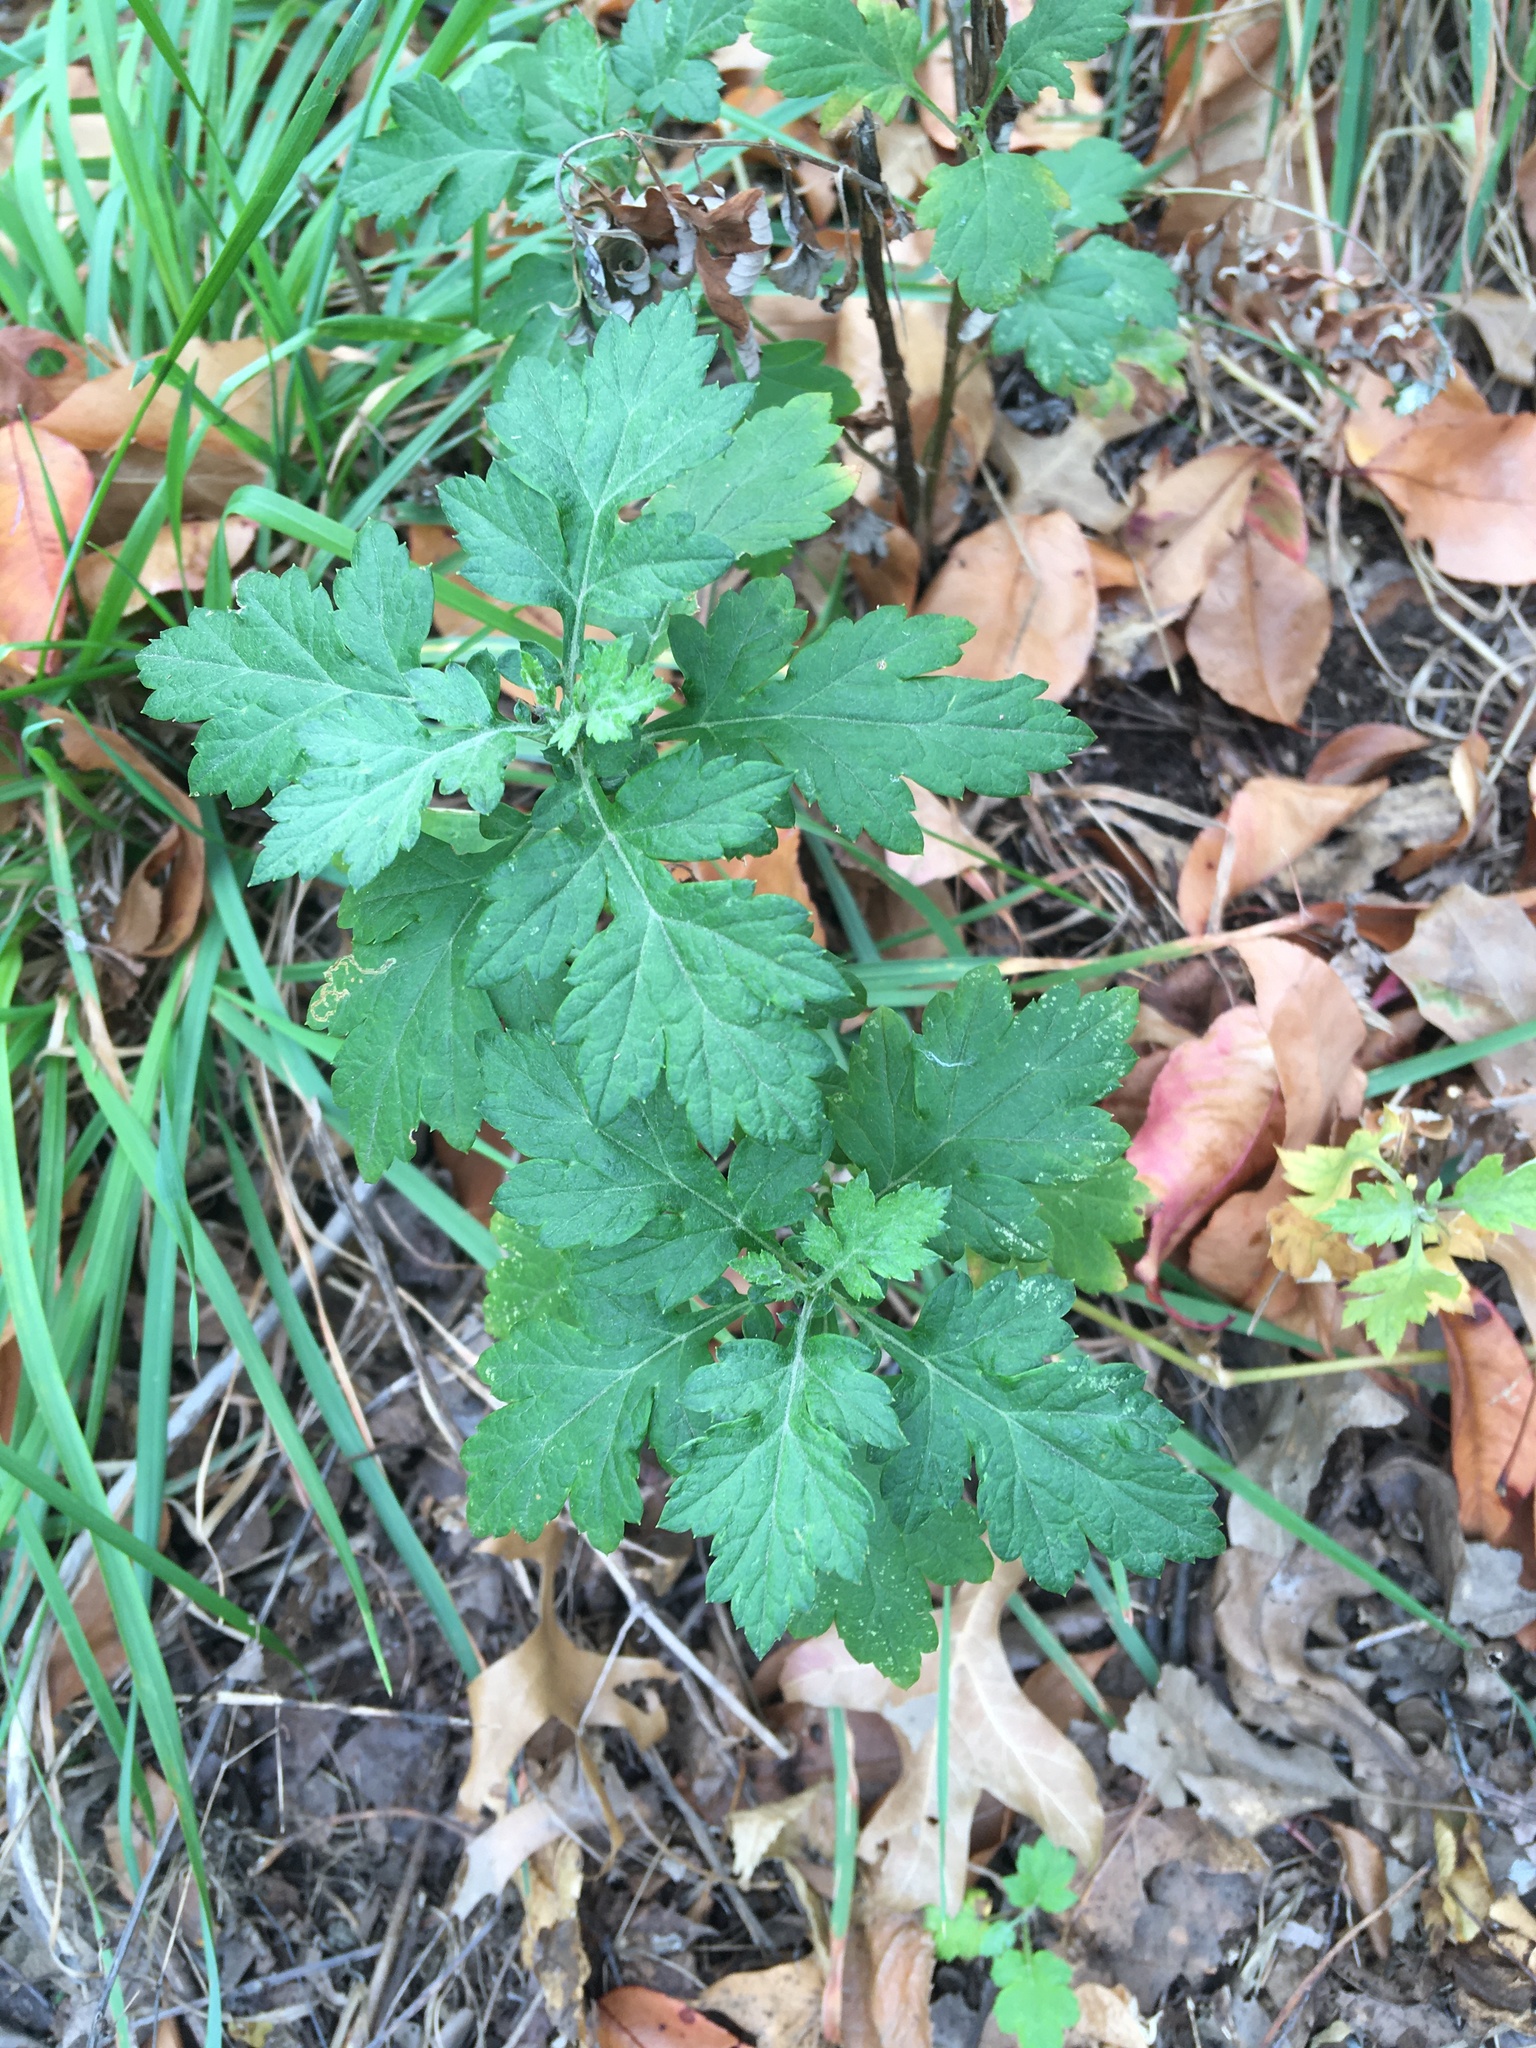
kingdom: Plantae
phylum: Tracheophyta
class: Magnoliopsida
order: Asterales
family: Asteraceae
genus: Artemisia
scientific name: Artemisia vulgaris
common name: Mugwort
